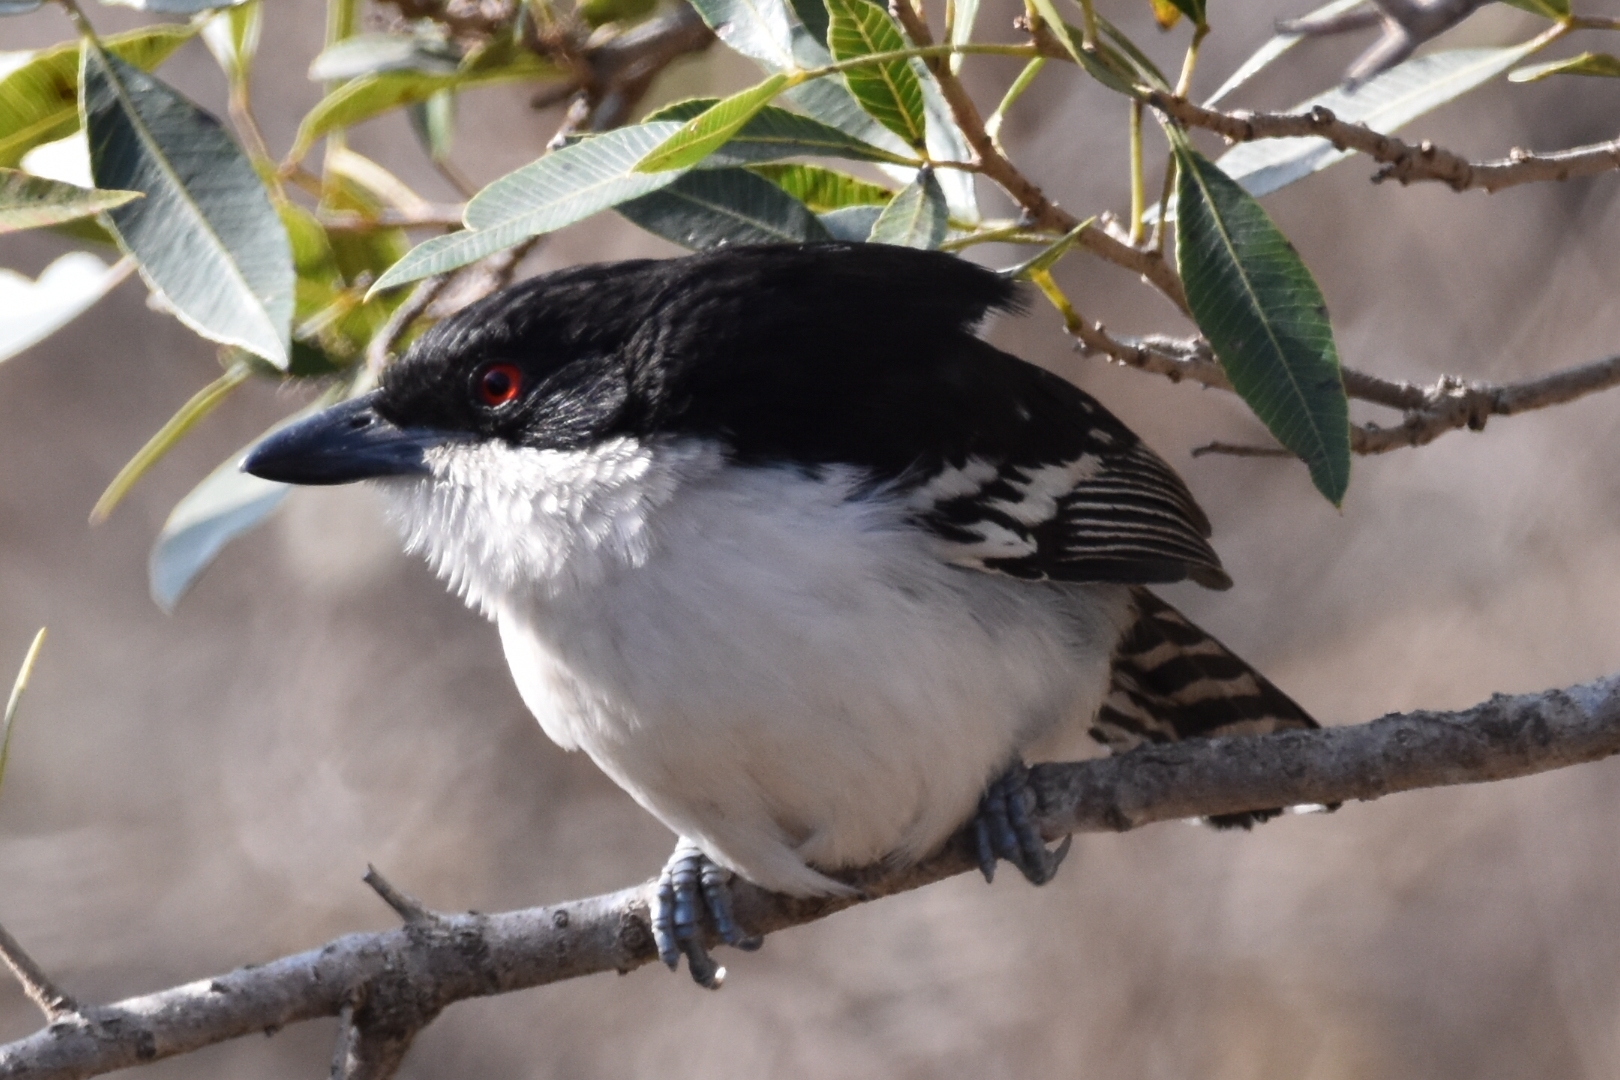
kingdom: Animalia
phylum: Chordata
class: Aves
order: Passeriformes
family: Thamnophilidae
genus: Taraba
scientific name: Taraba major
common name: Great antshrike
